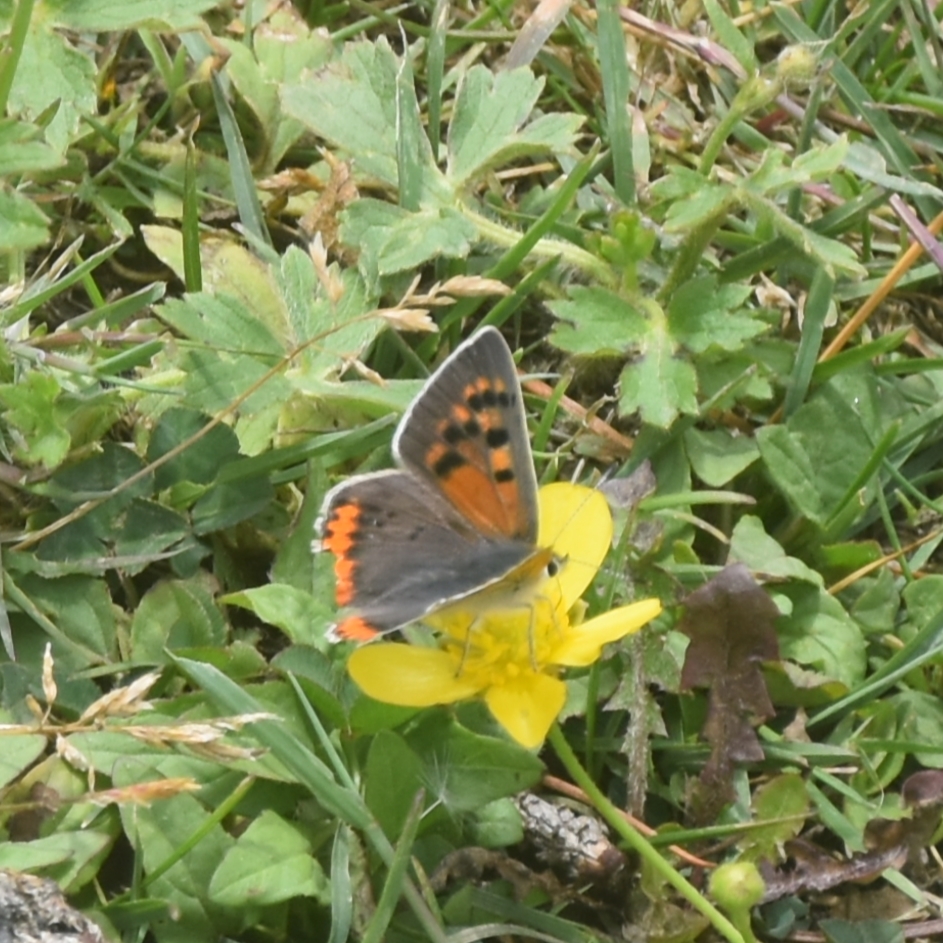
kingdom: Animalia
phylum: Arthropoda
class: Insecta
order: Lepidoptera
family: Lycaenidae
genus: Lycaena
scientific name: Lycaena phlaeas
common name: Small copper
